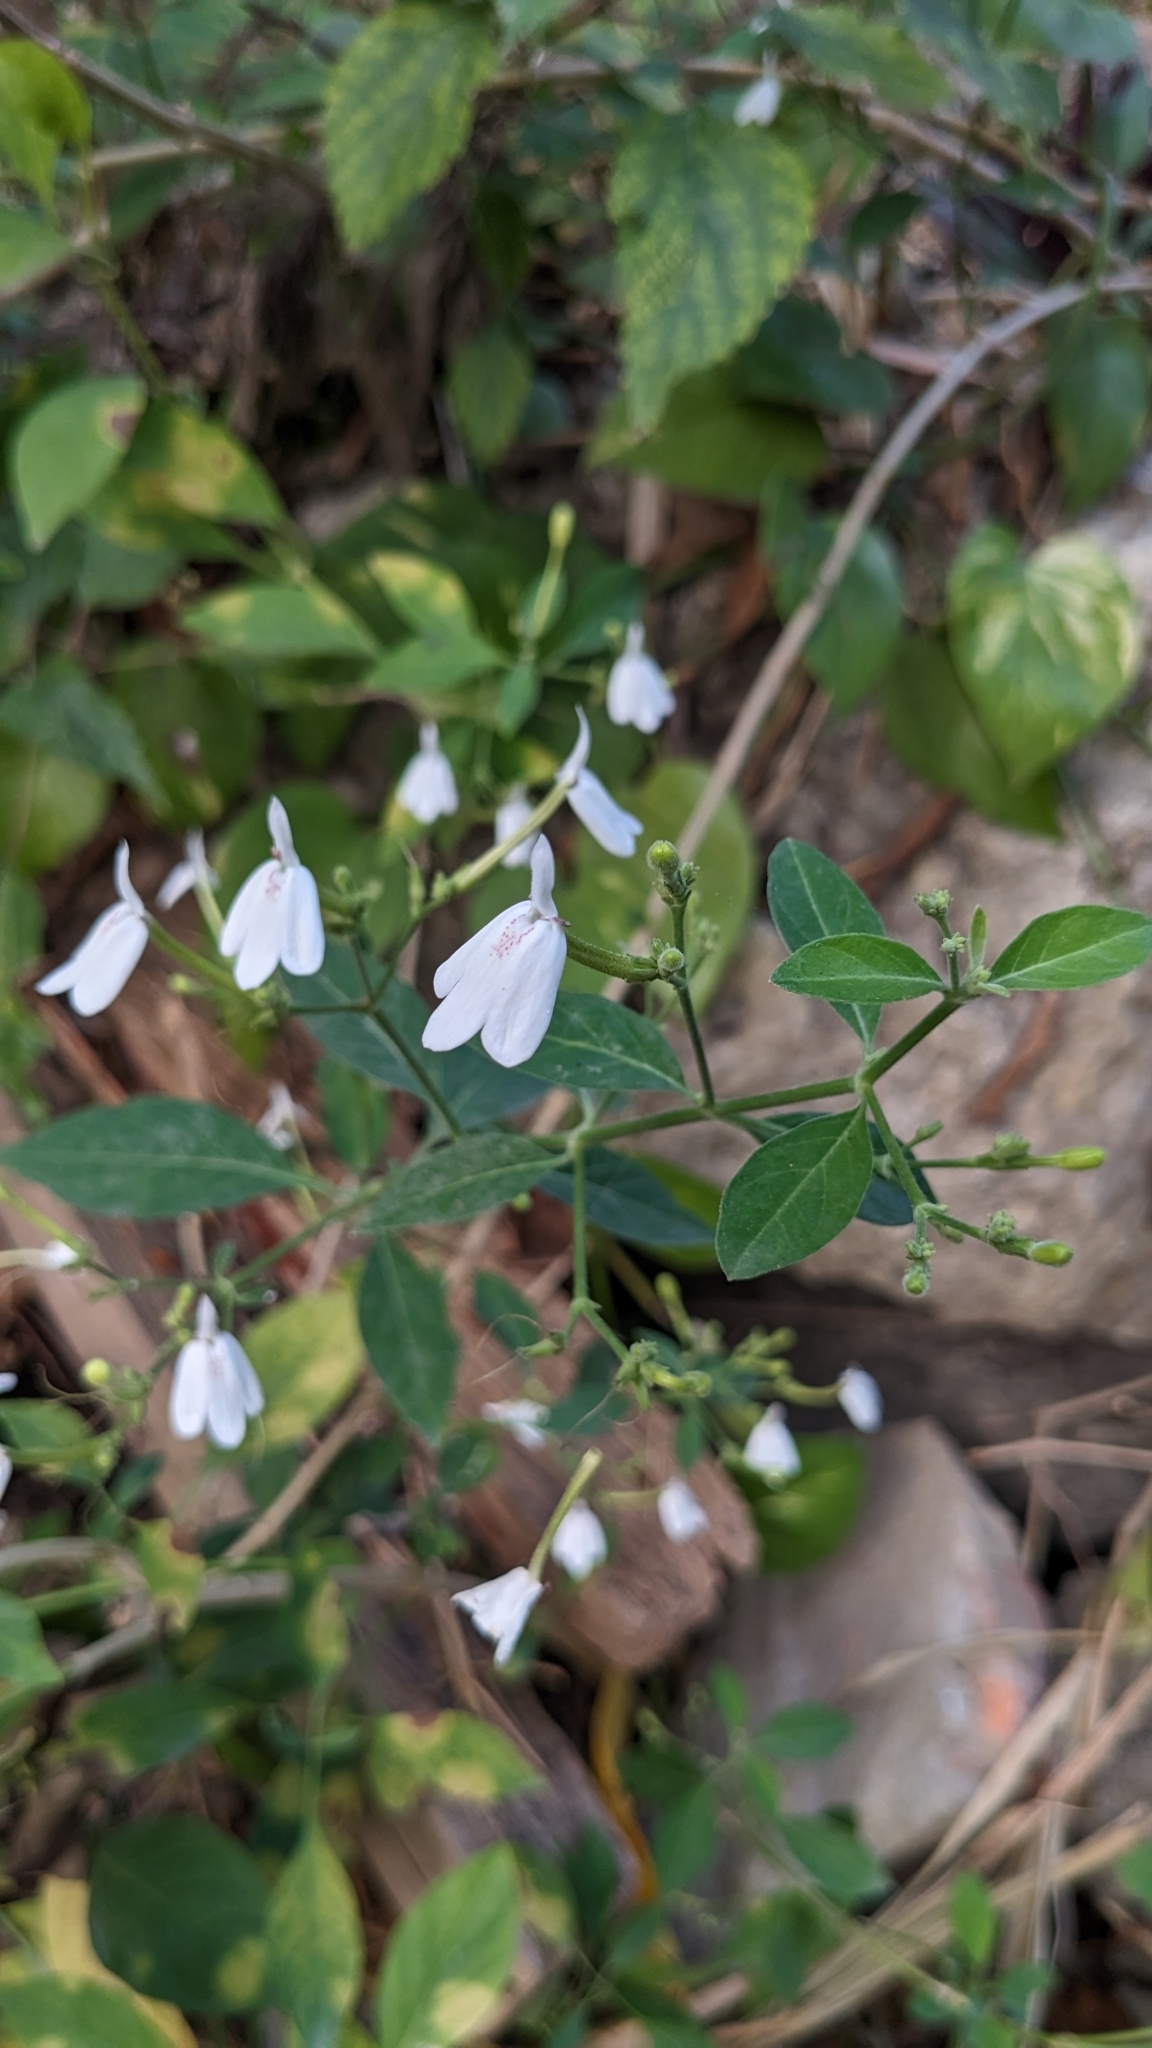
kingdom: Plantae
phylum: Tracheophyta
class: Magnoliopsida
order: Lamiales
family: Acanthaceae
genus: Rhinacanthus
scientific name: Rhinacanthus nasutus
